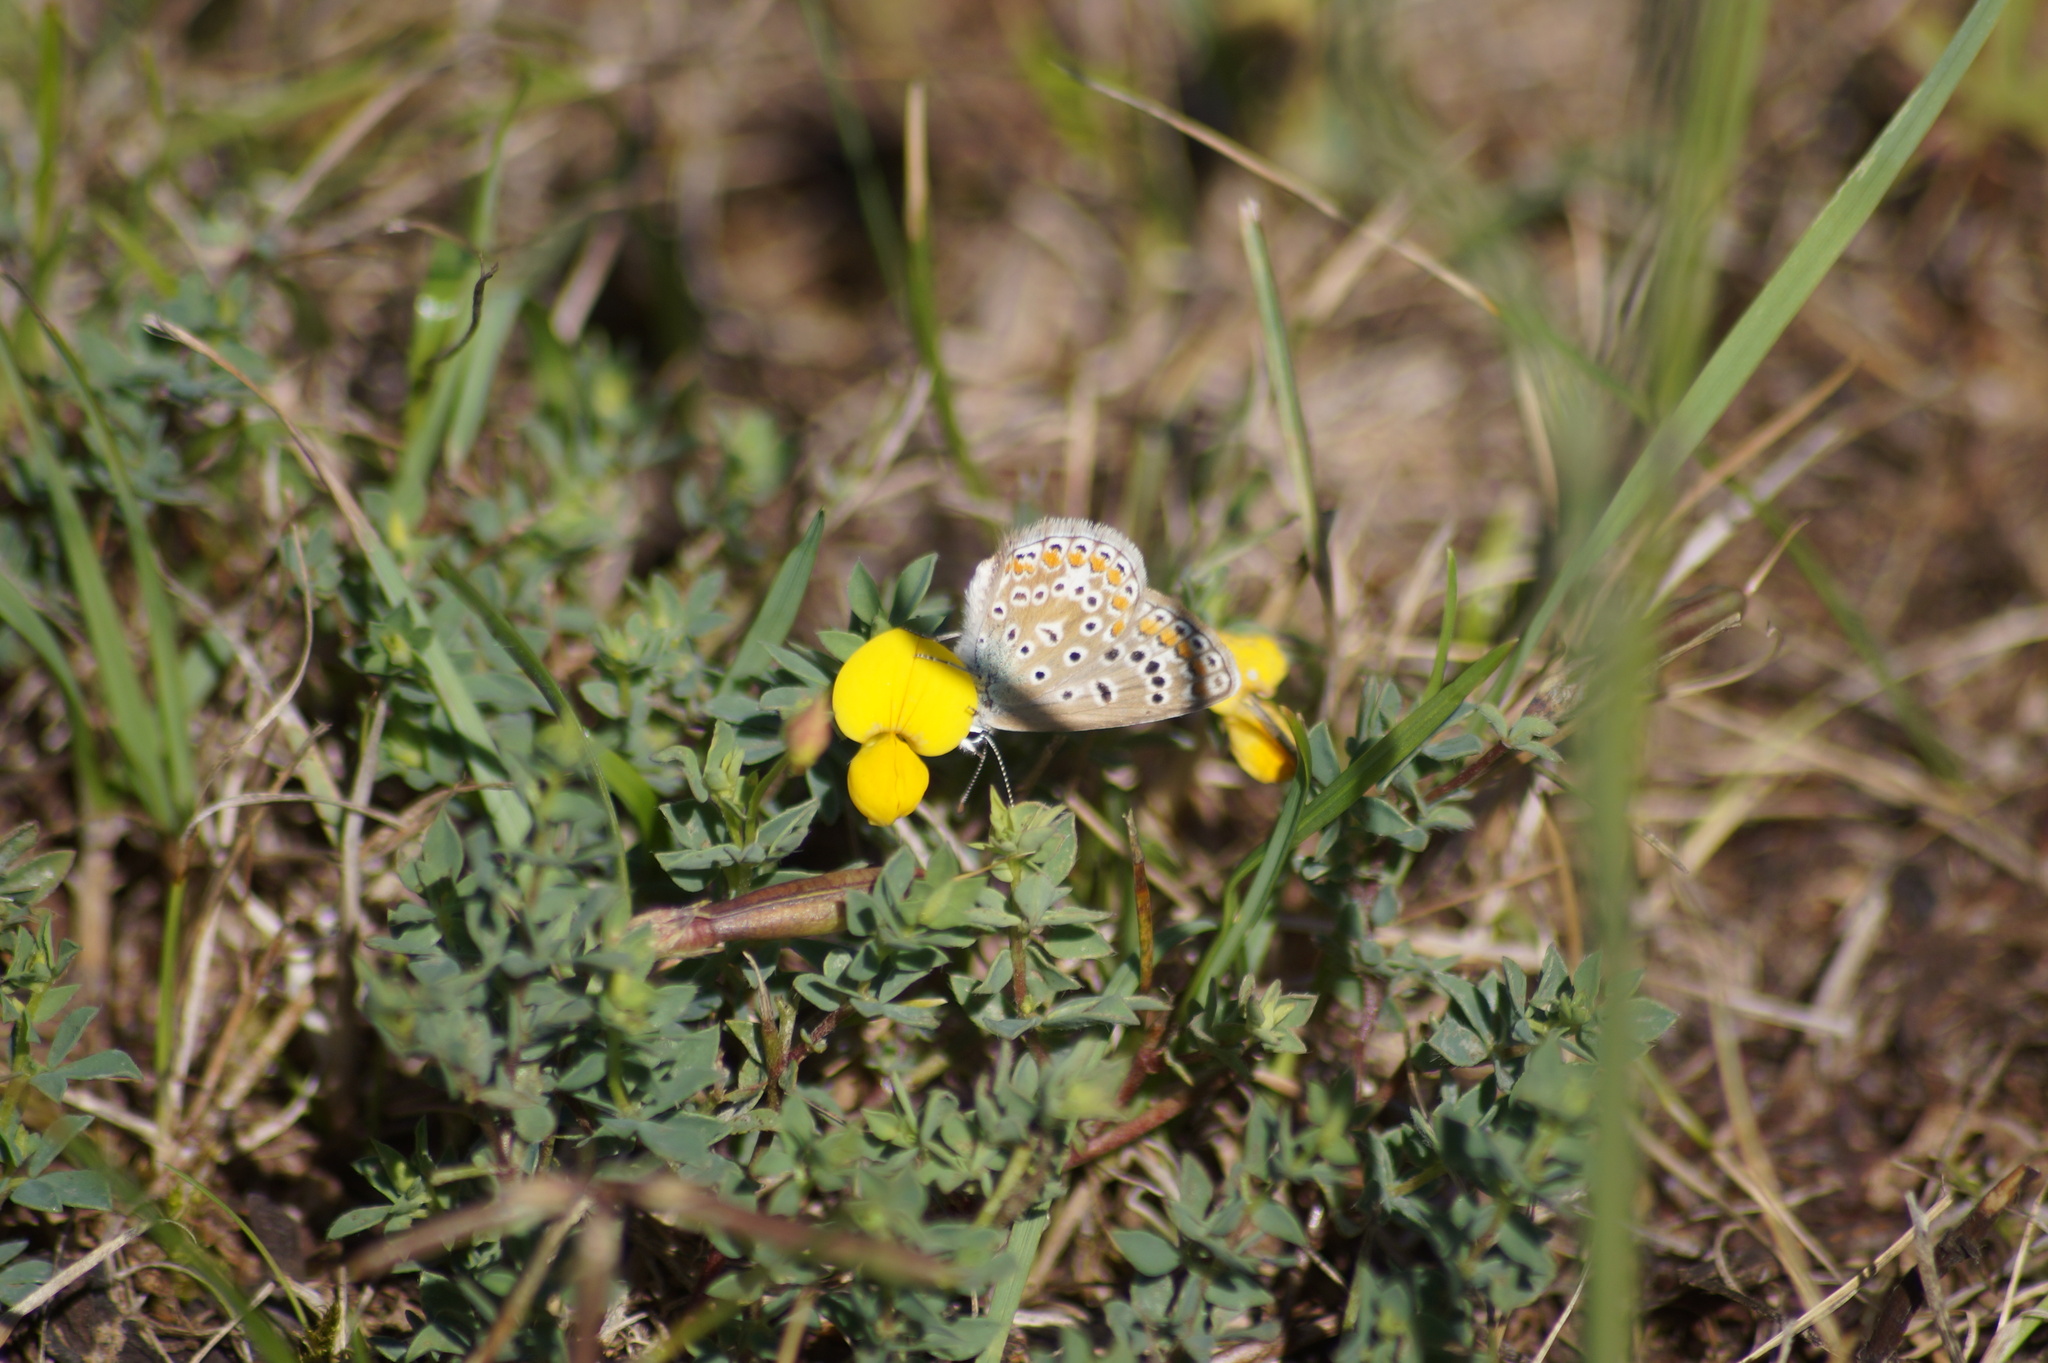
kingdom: Animalia
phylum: Arthropoda
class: Insecta
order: Lepidoptera
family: Lycaenidae
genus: Polyommatus
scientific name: Polyommatus icarus
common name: Common blue
